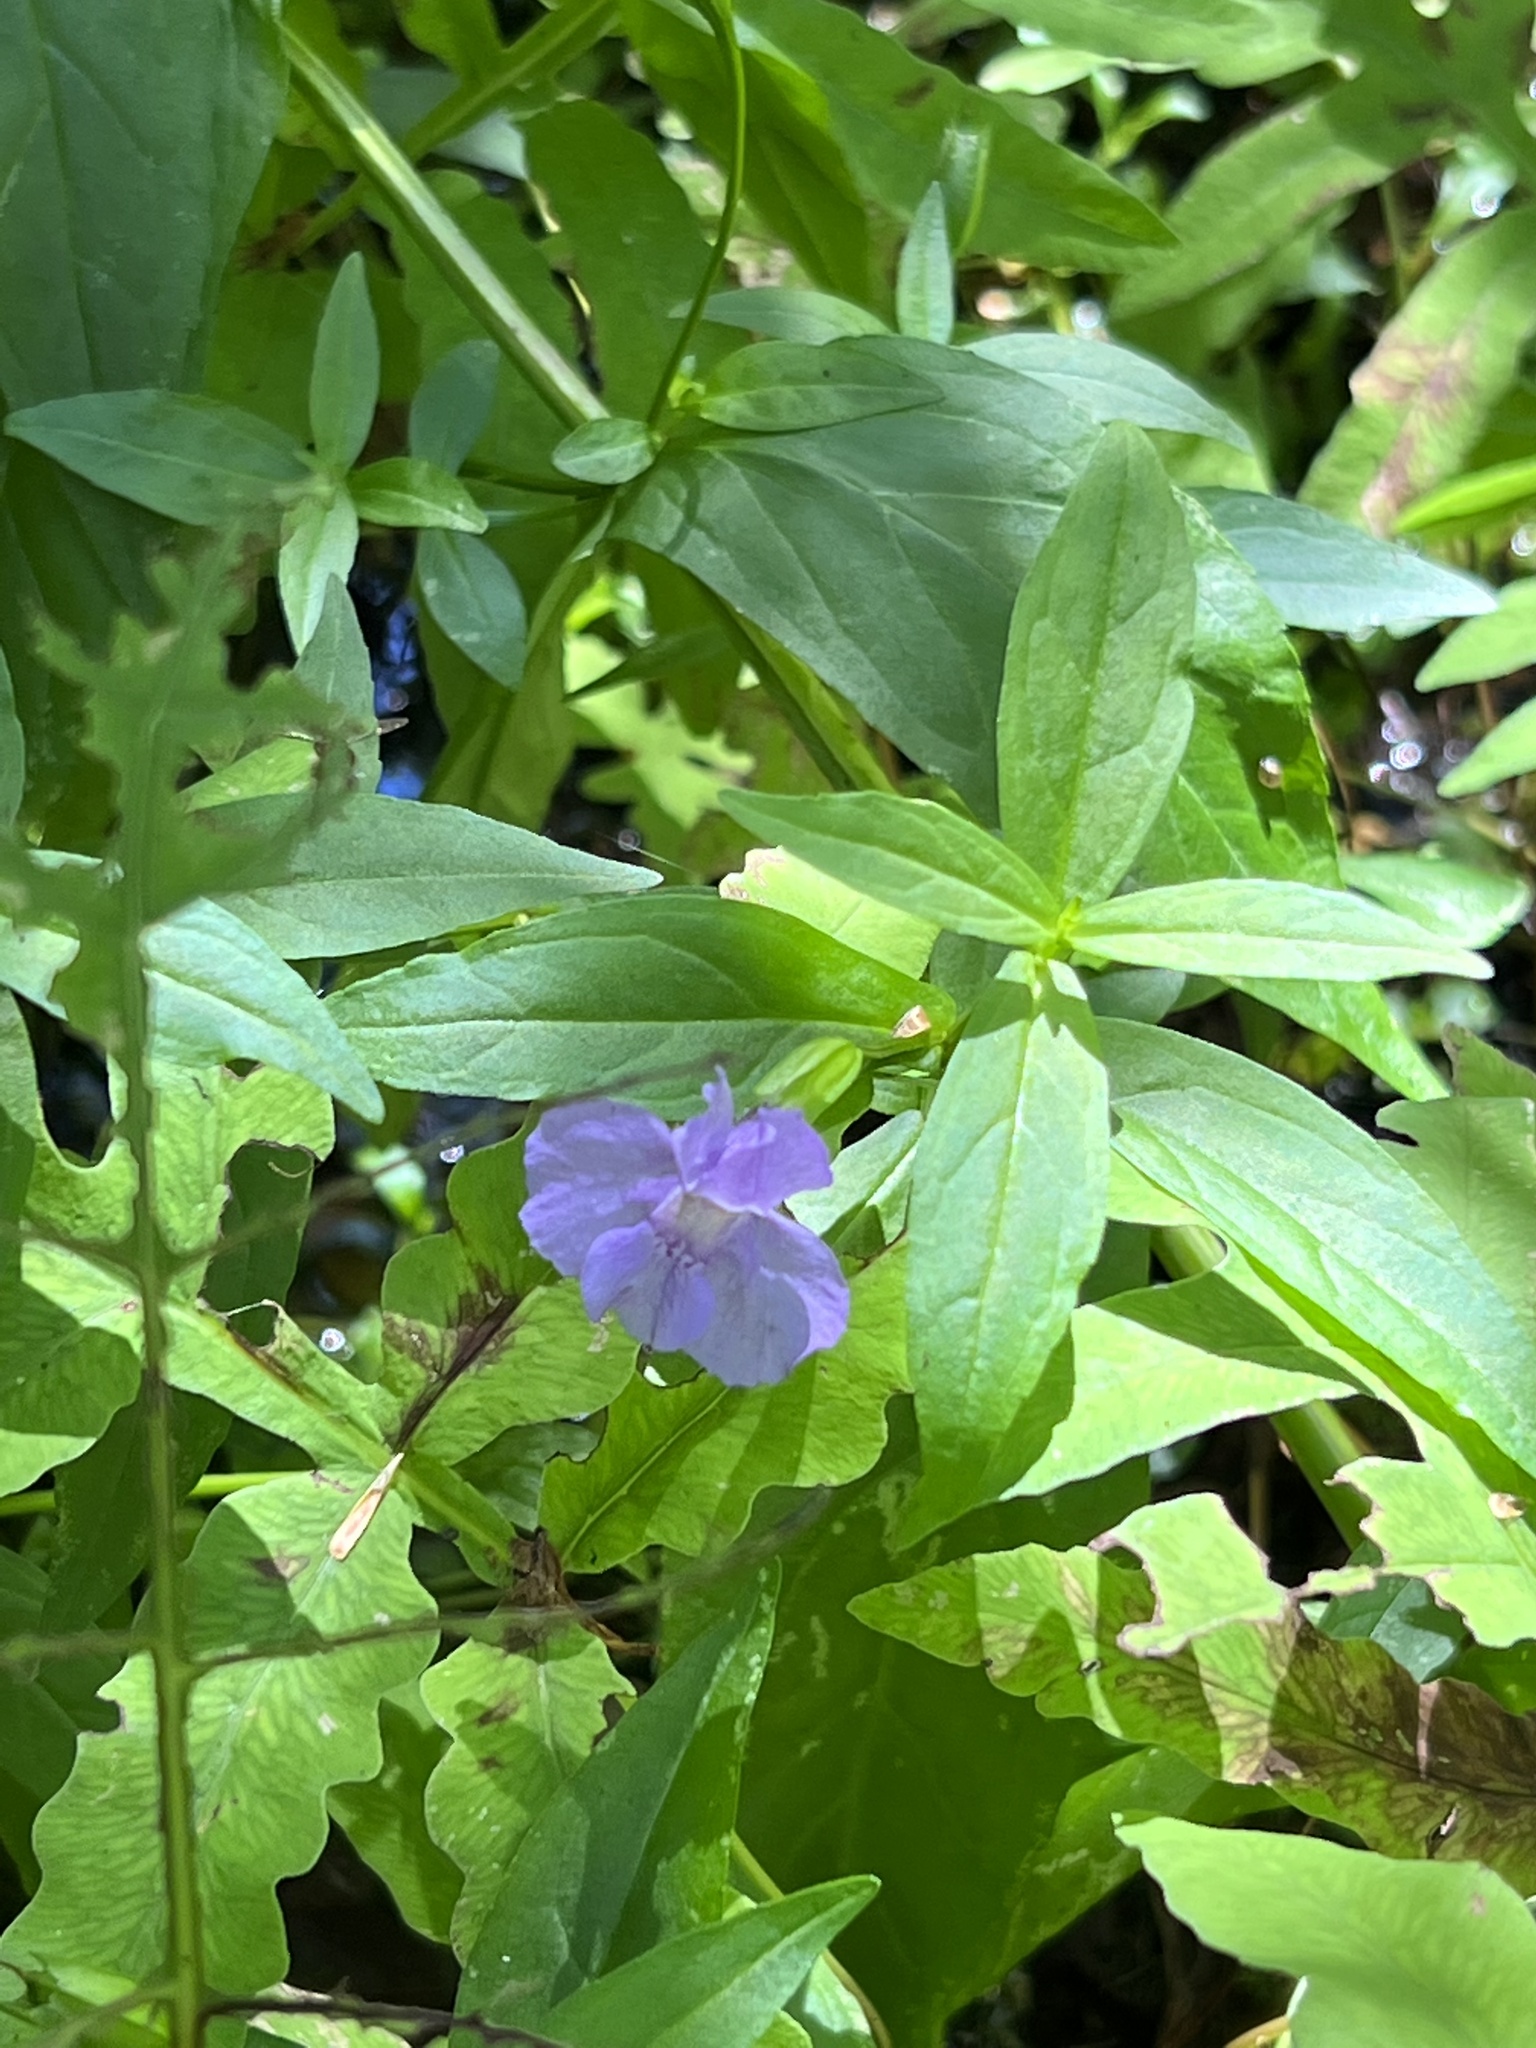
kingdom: Plantae
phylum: Tracheophyta
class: Magnoliopsida
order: Lamiales
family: Phrymaceae
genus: Mimulus
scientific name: Mimulus ringens
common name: Allegheny monkeyflower
